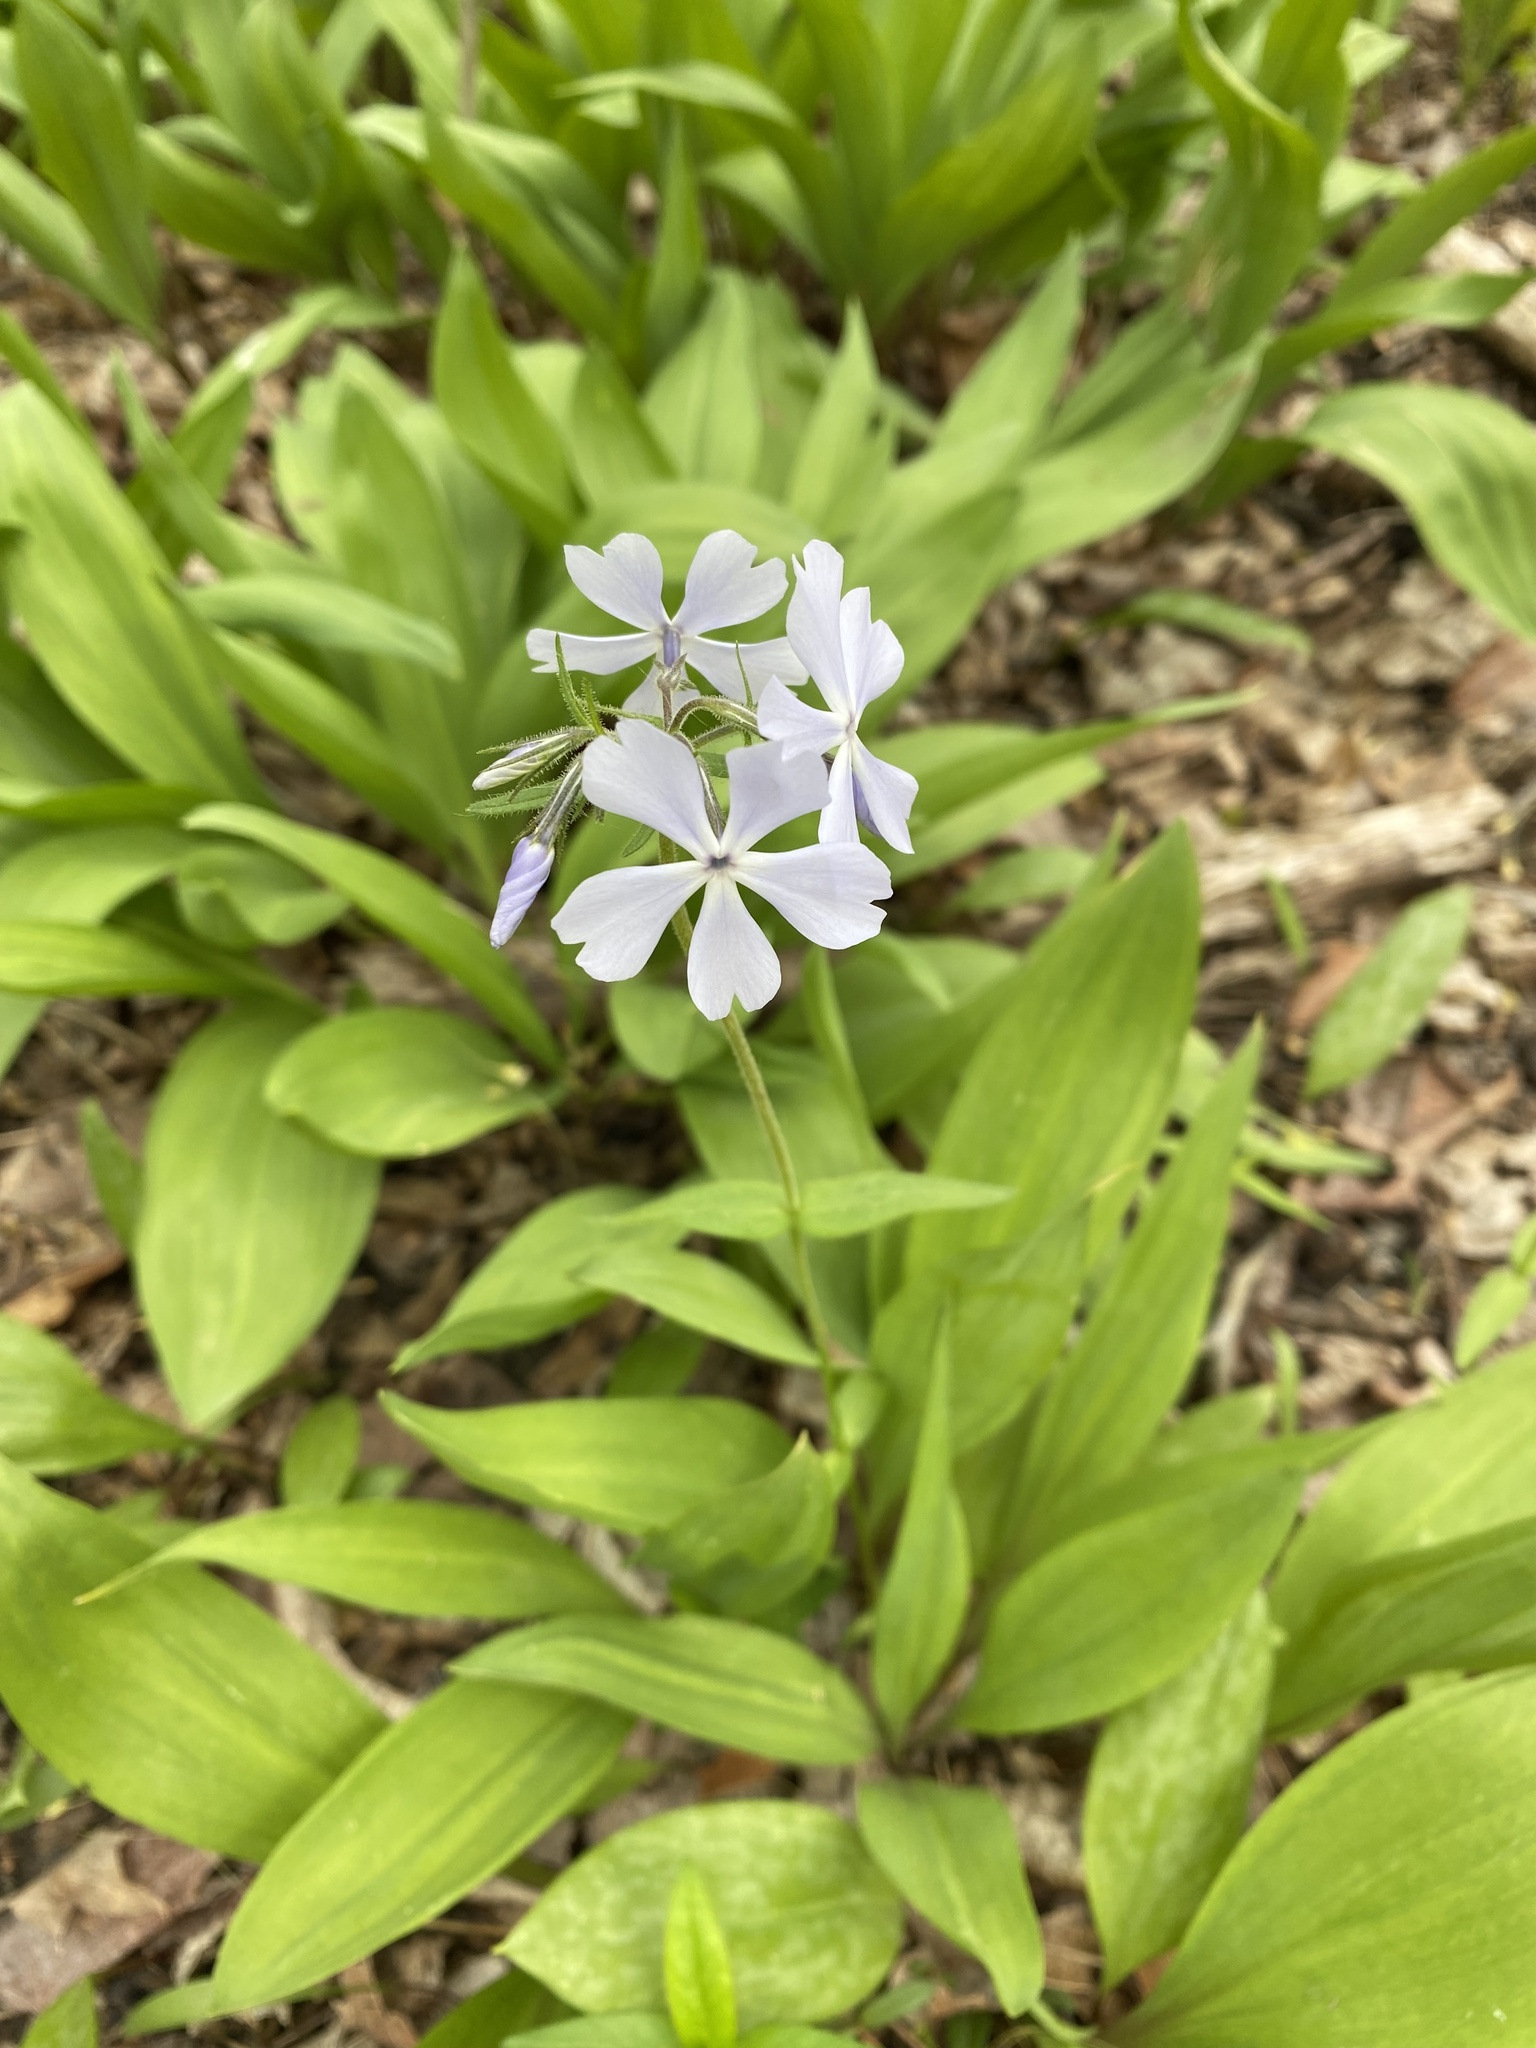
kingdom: Plantae
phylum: Tracheophyta
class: Magnoliopsida
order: Ericales
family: Polemoniaceae
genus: Phlox
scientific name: Phlox divaricata
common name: Blue phlox
